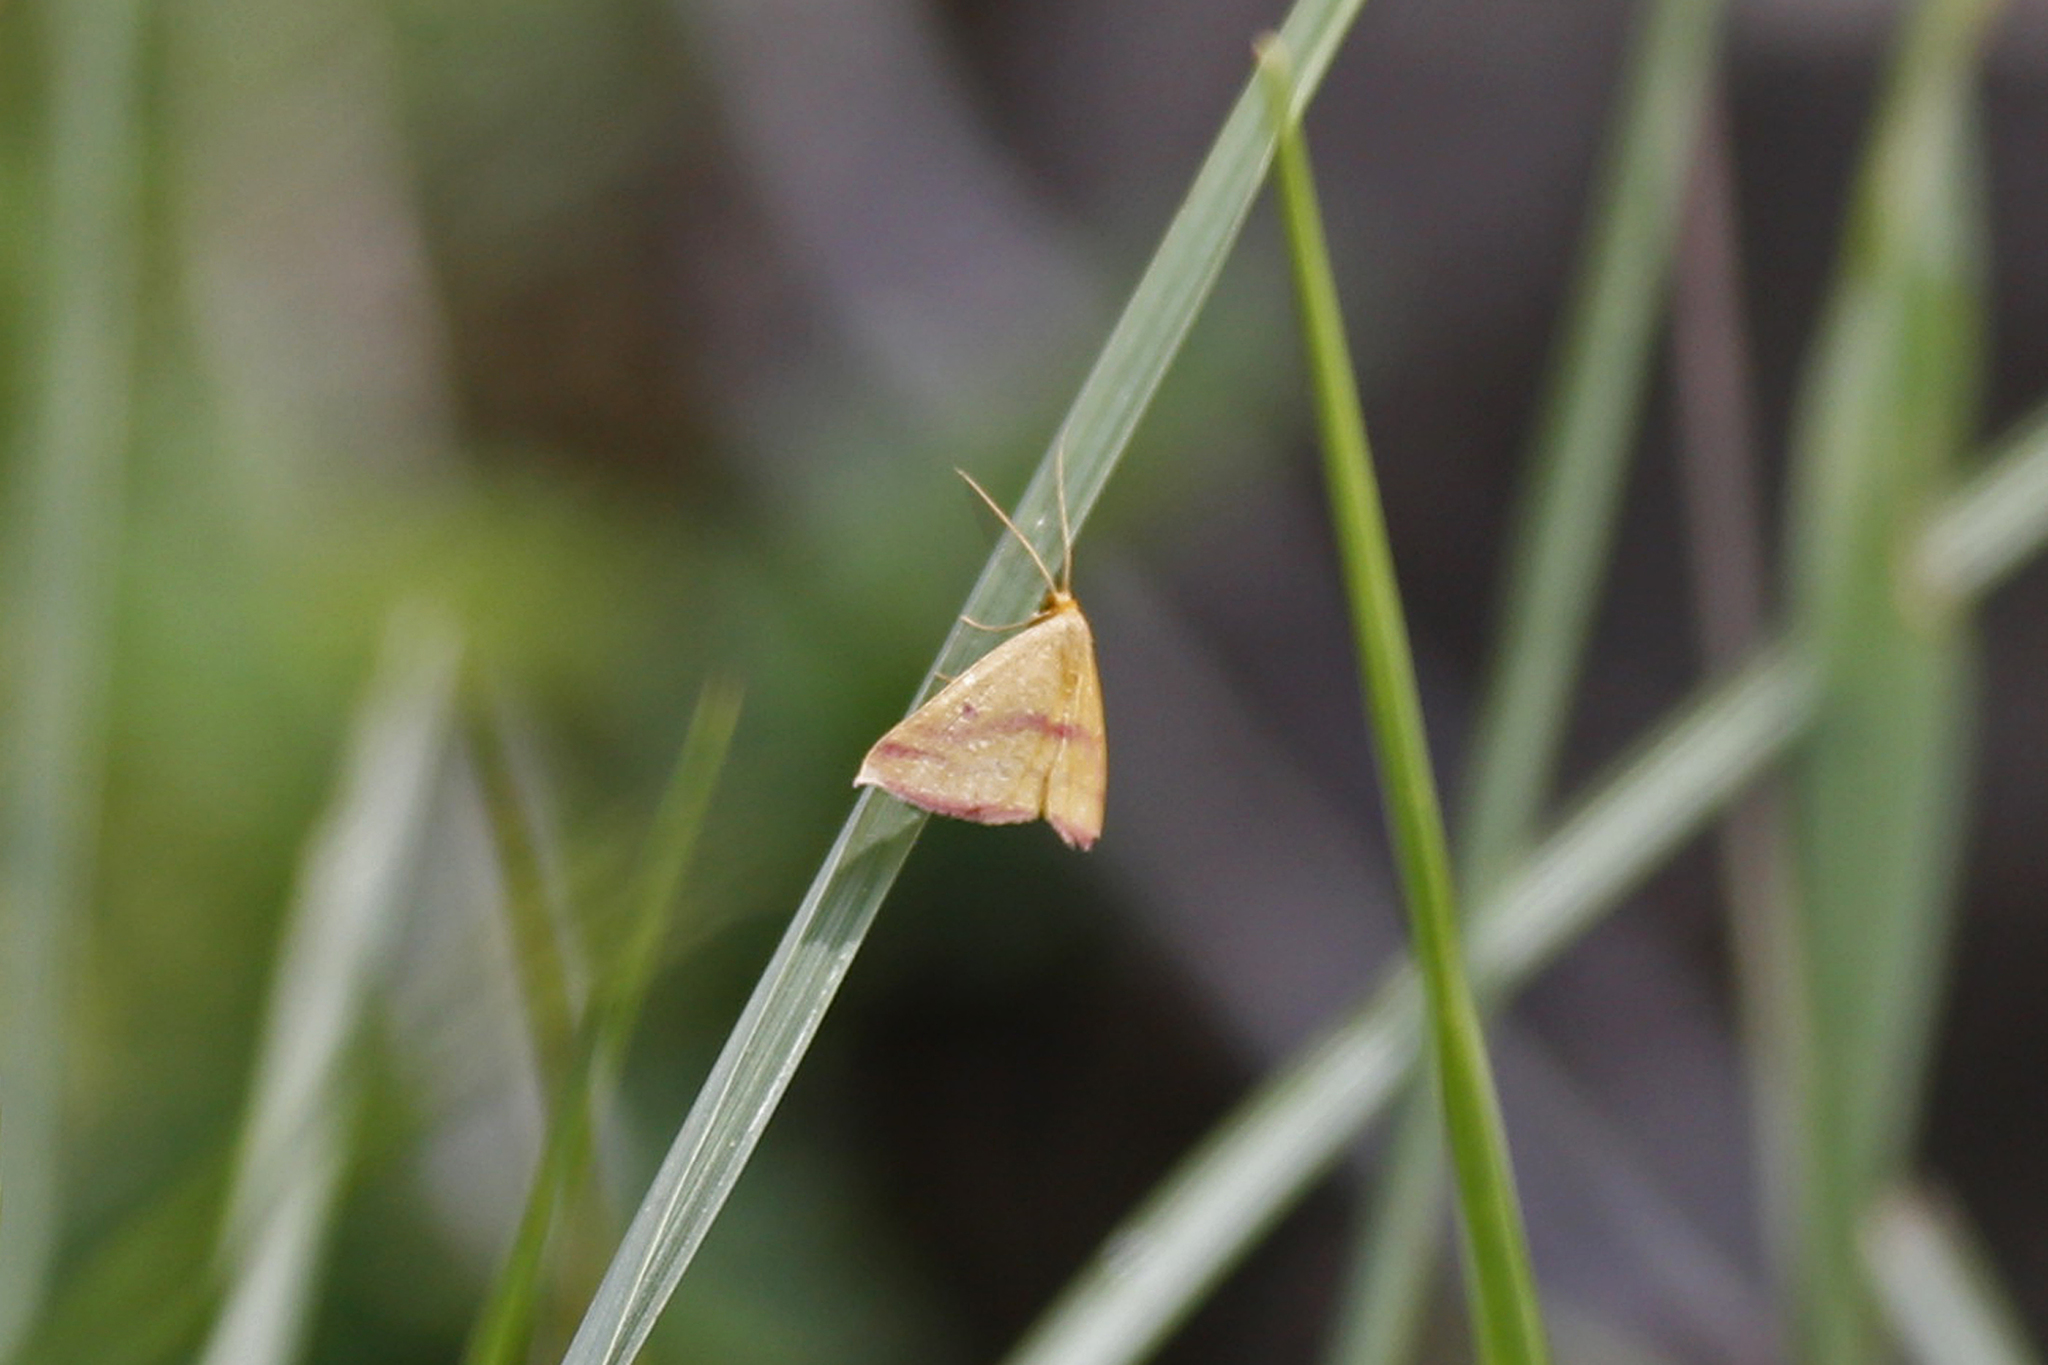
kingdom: Animalia
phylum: Arthropoda
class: Insecta
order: Lepidoptera
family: Geometridae
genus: Haematopis
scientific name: Haematopis grataria
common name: Chickweed geometer
